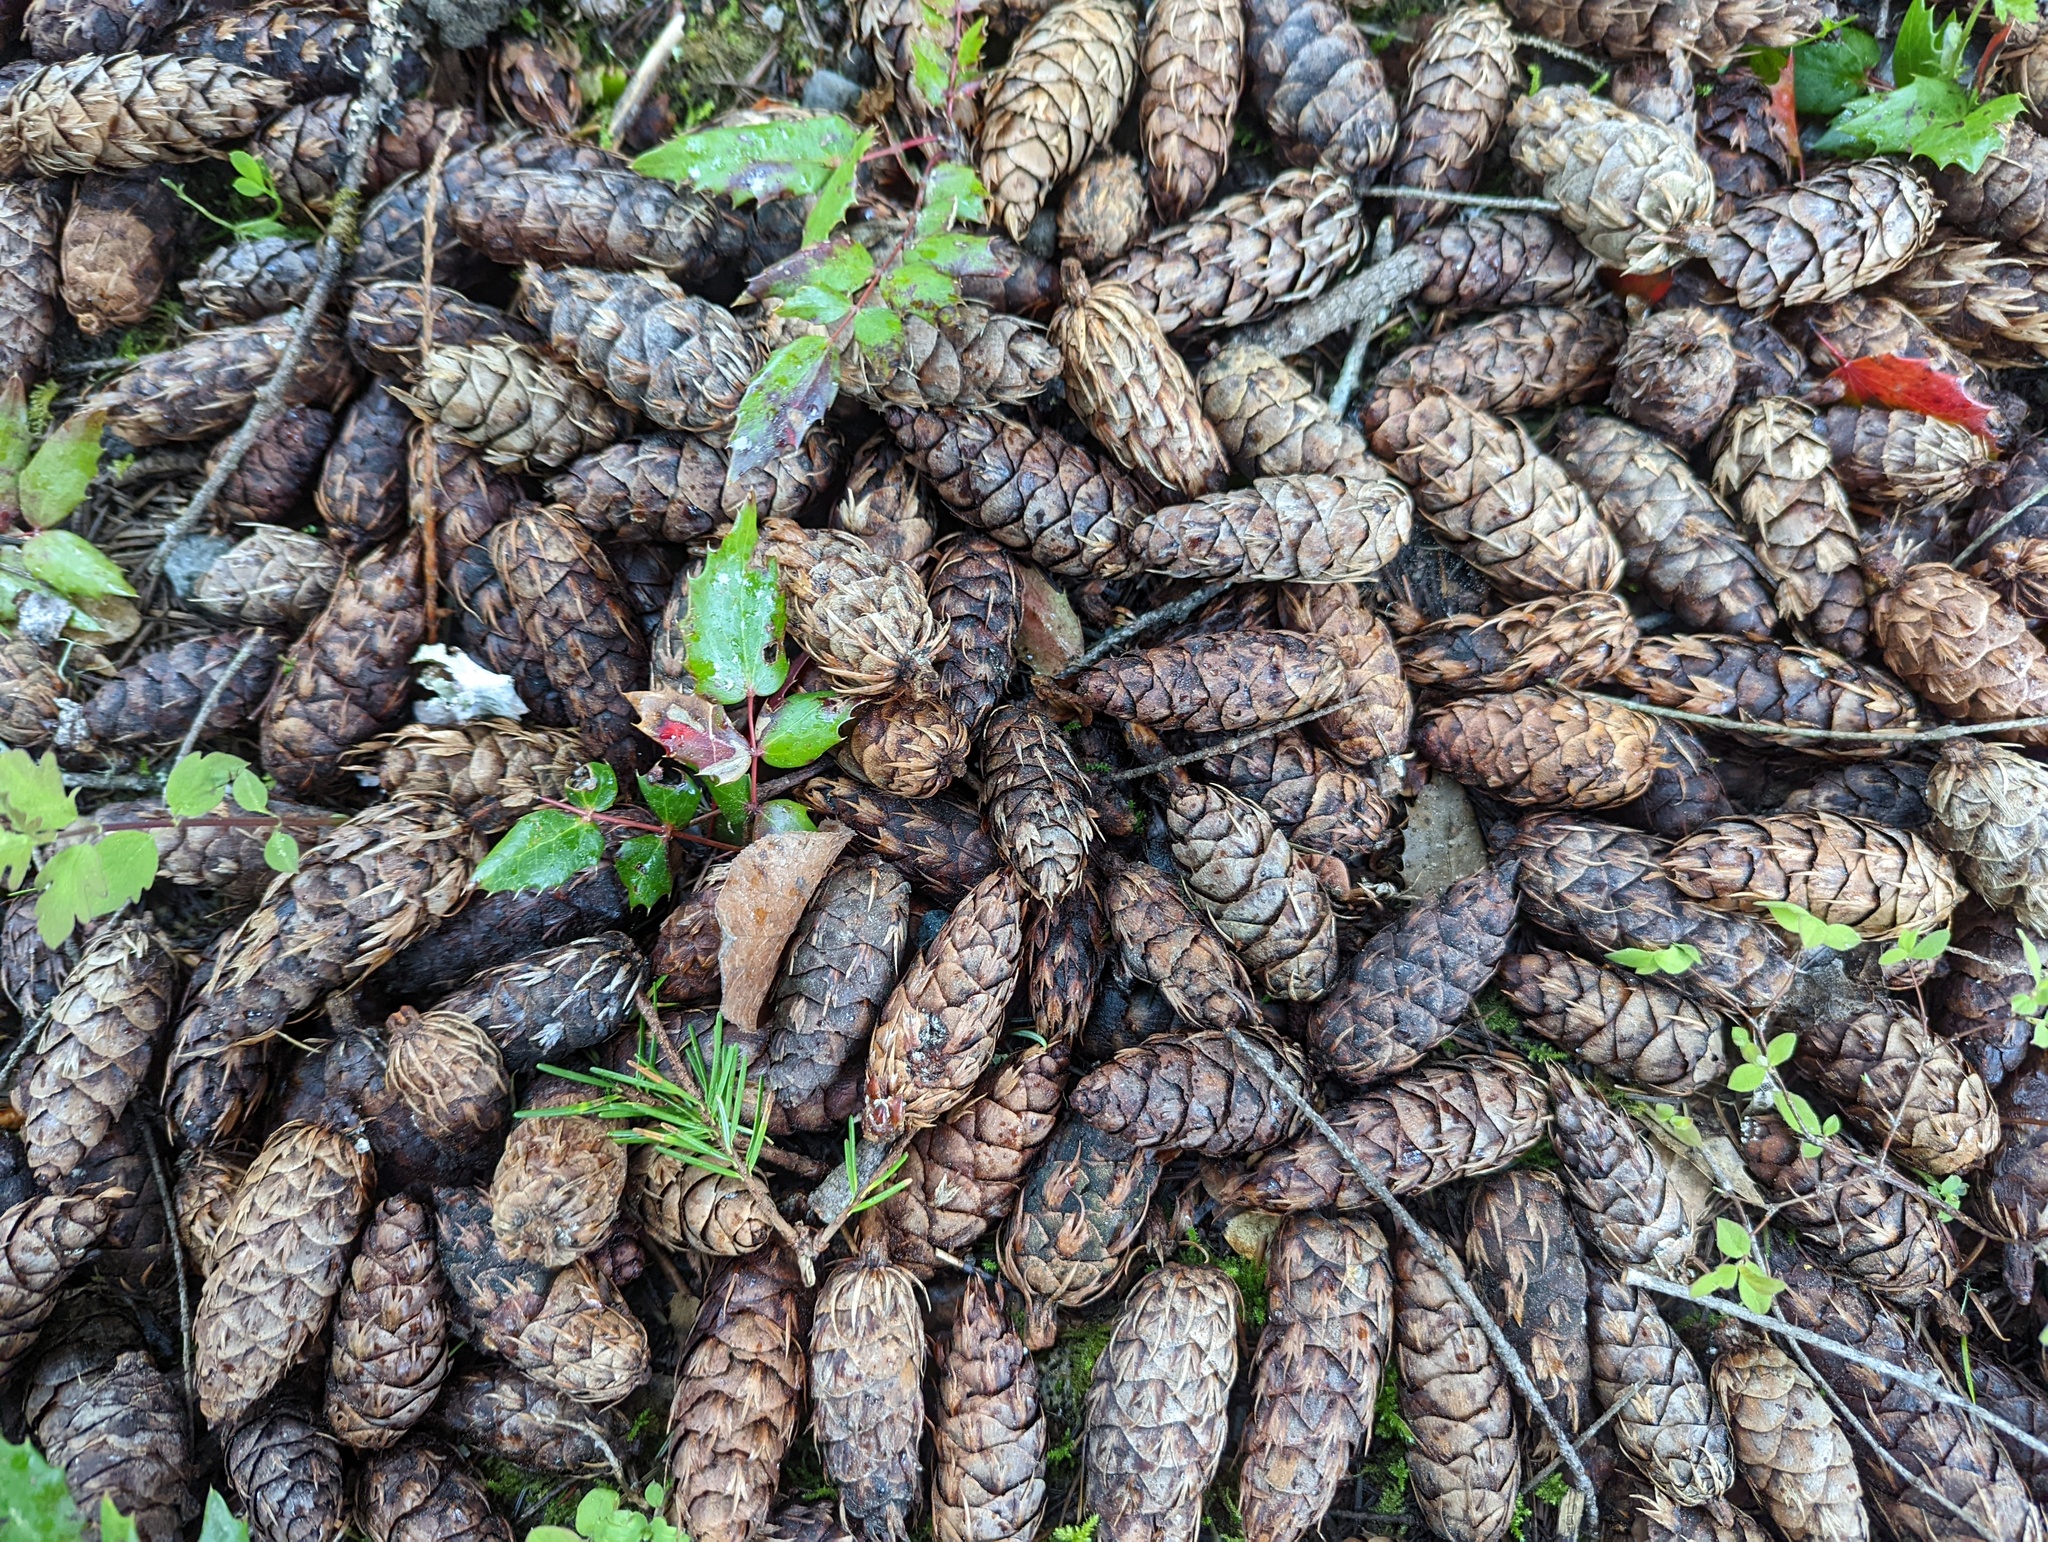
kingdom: Plantae
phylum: Tracheophyta
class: Pinopsida
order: Pinales
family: Pinaceae
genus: Pseudotsuga
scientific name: Pseudotsuga menziesii
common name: Douglas fir
